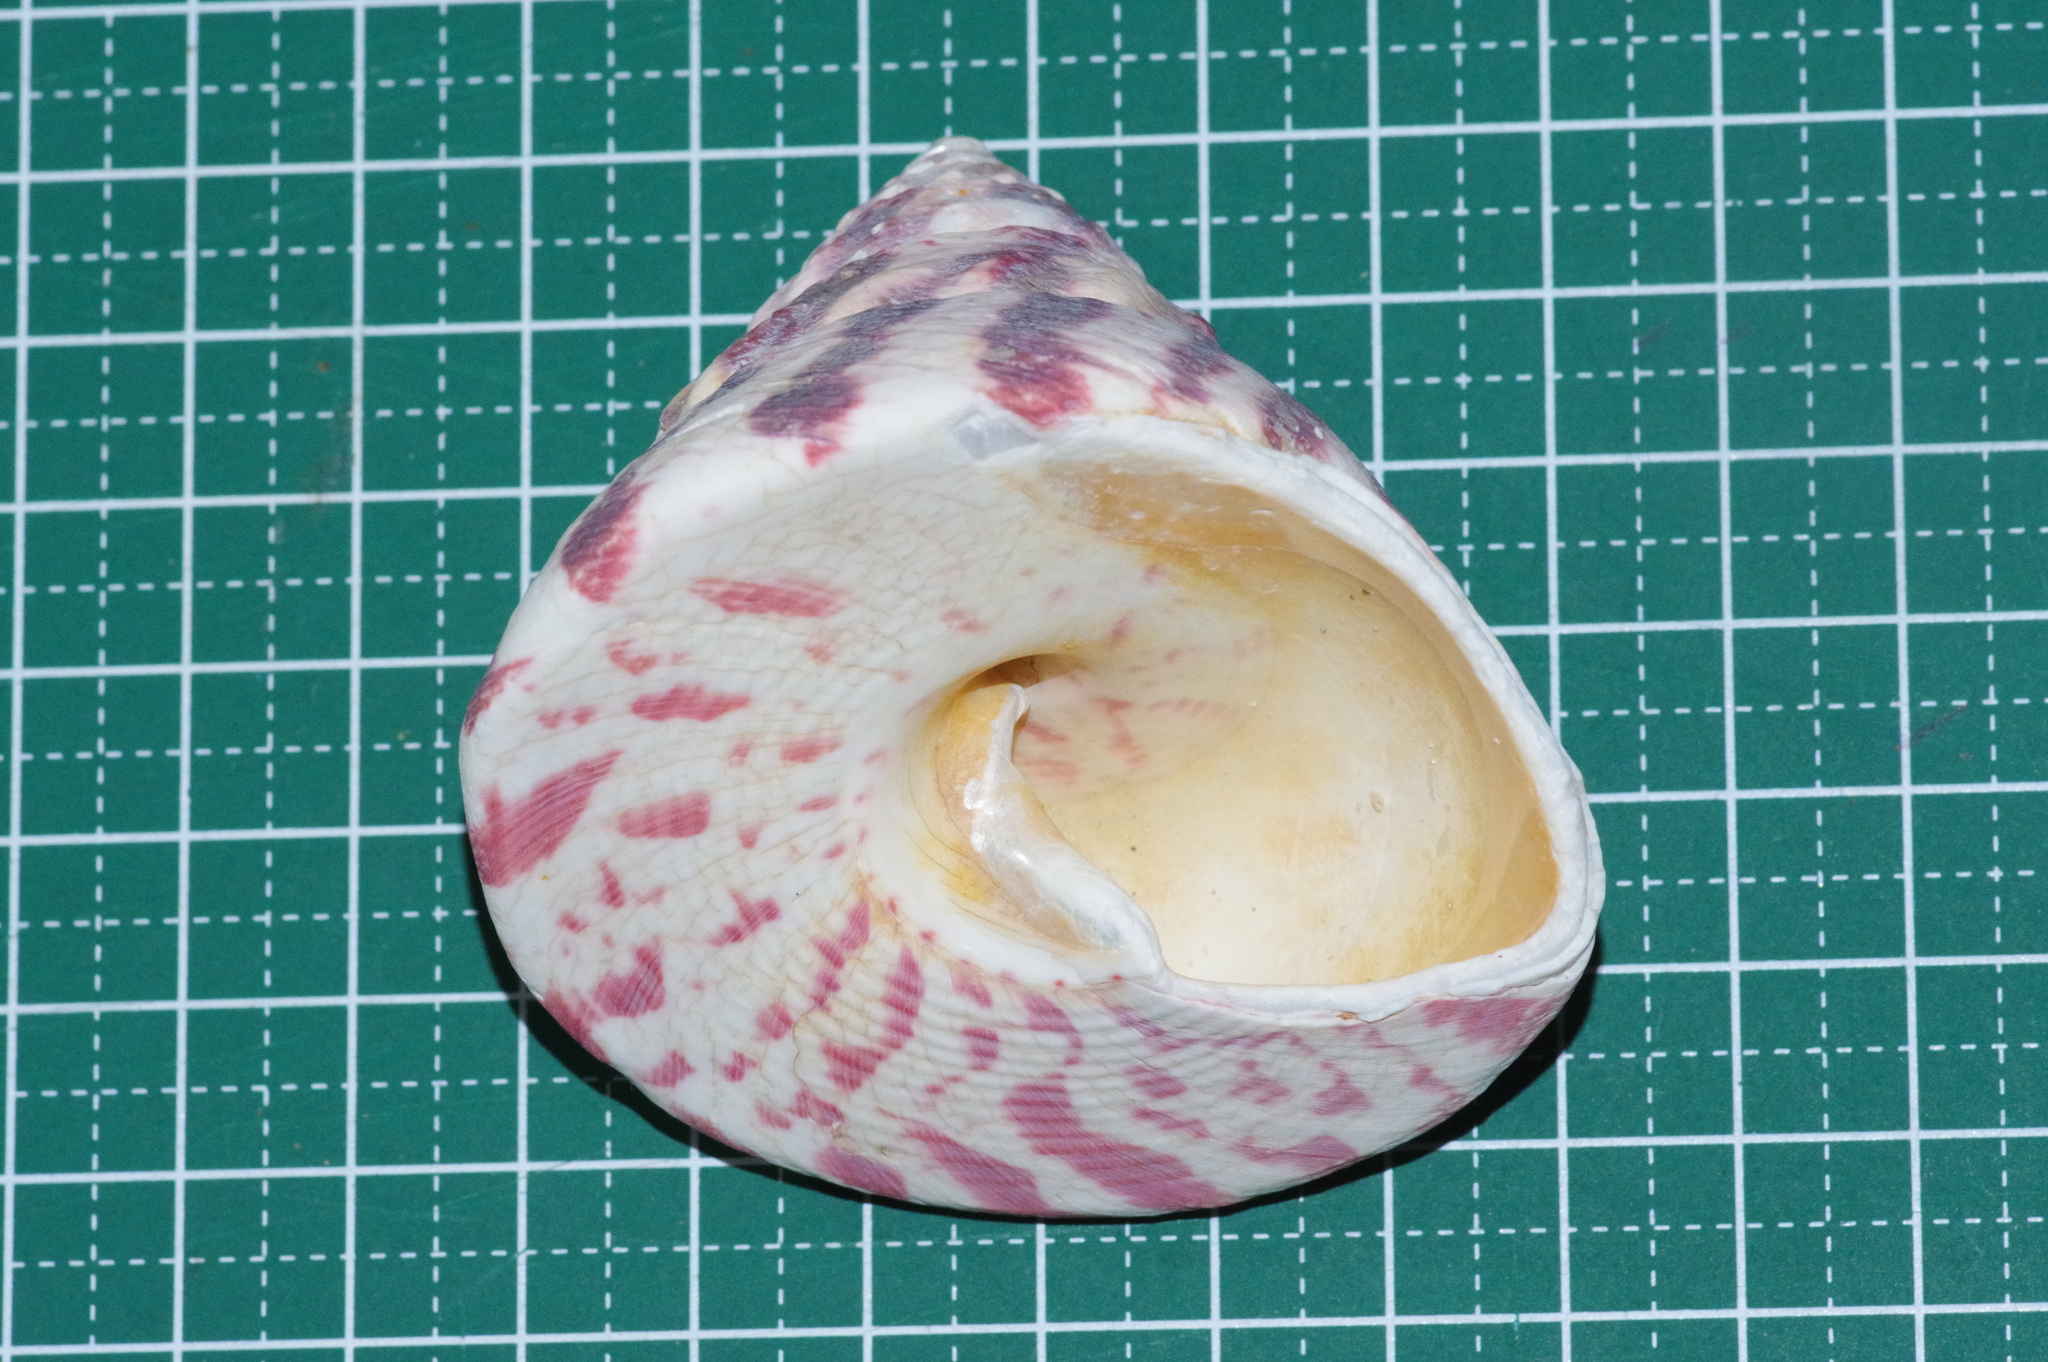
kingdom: Animalia
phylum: Mollusca
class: Gastropoda
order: Trochida
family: Tegulidae
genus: Rochia
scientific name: Rochia nilotica
